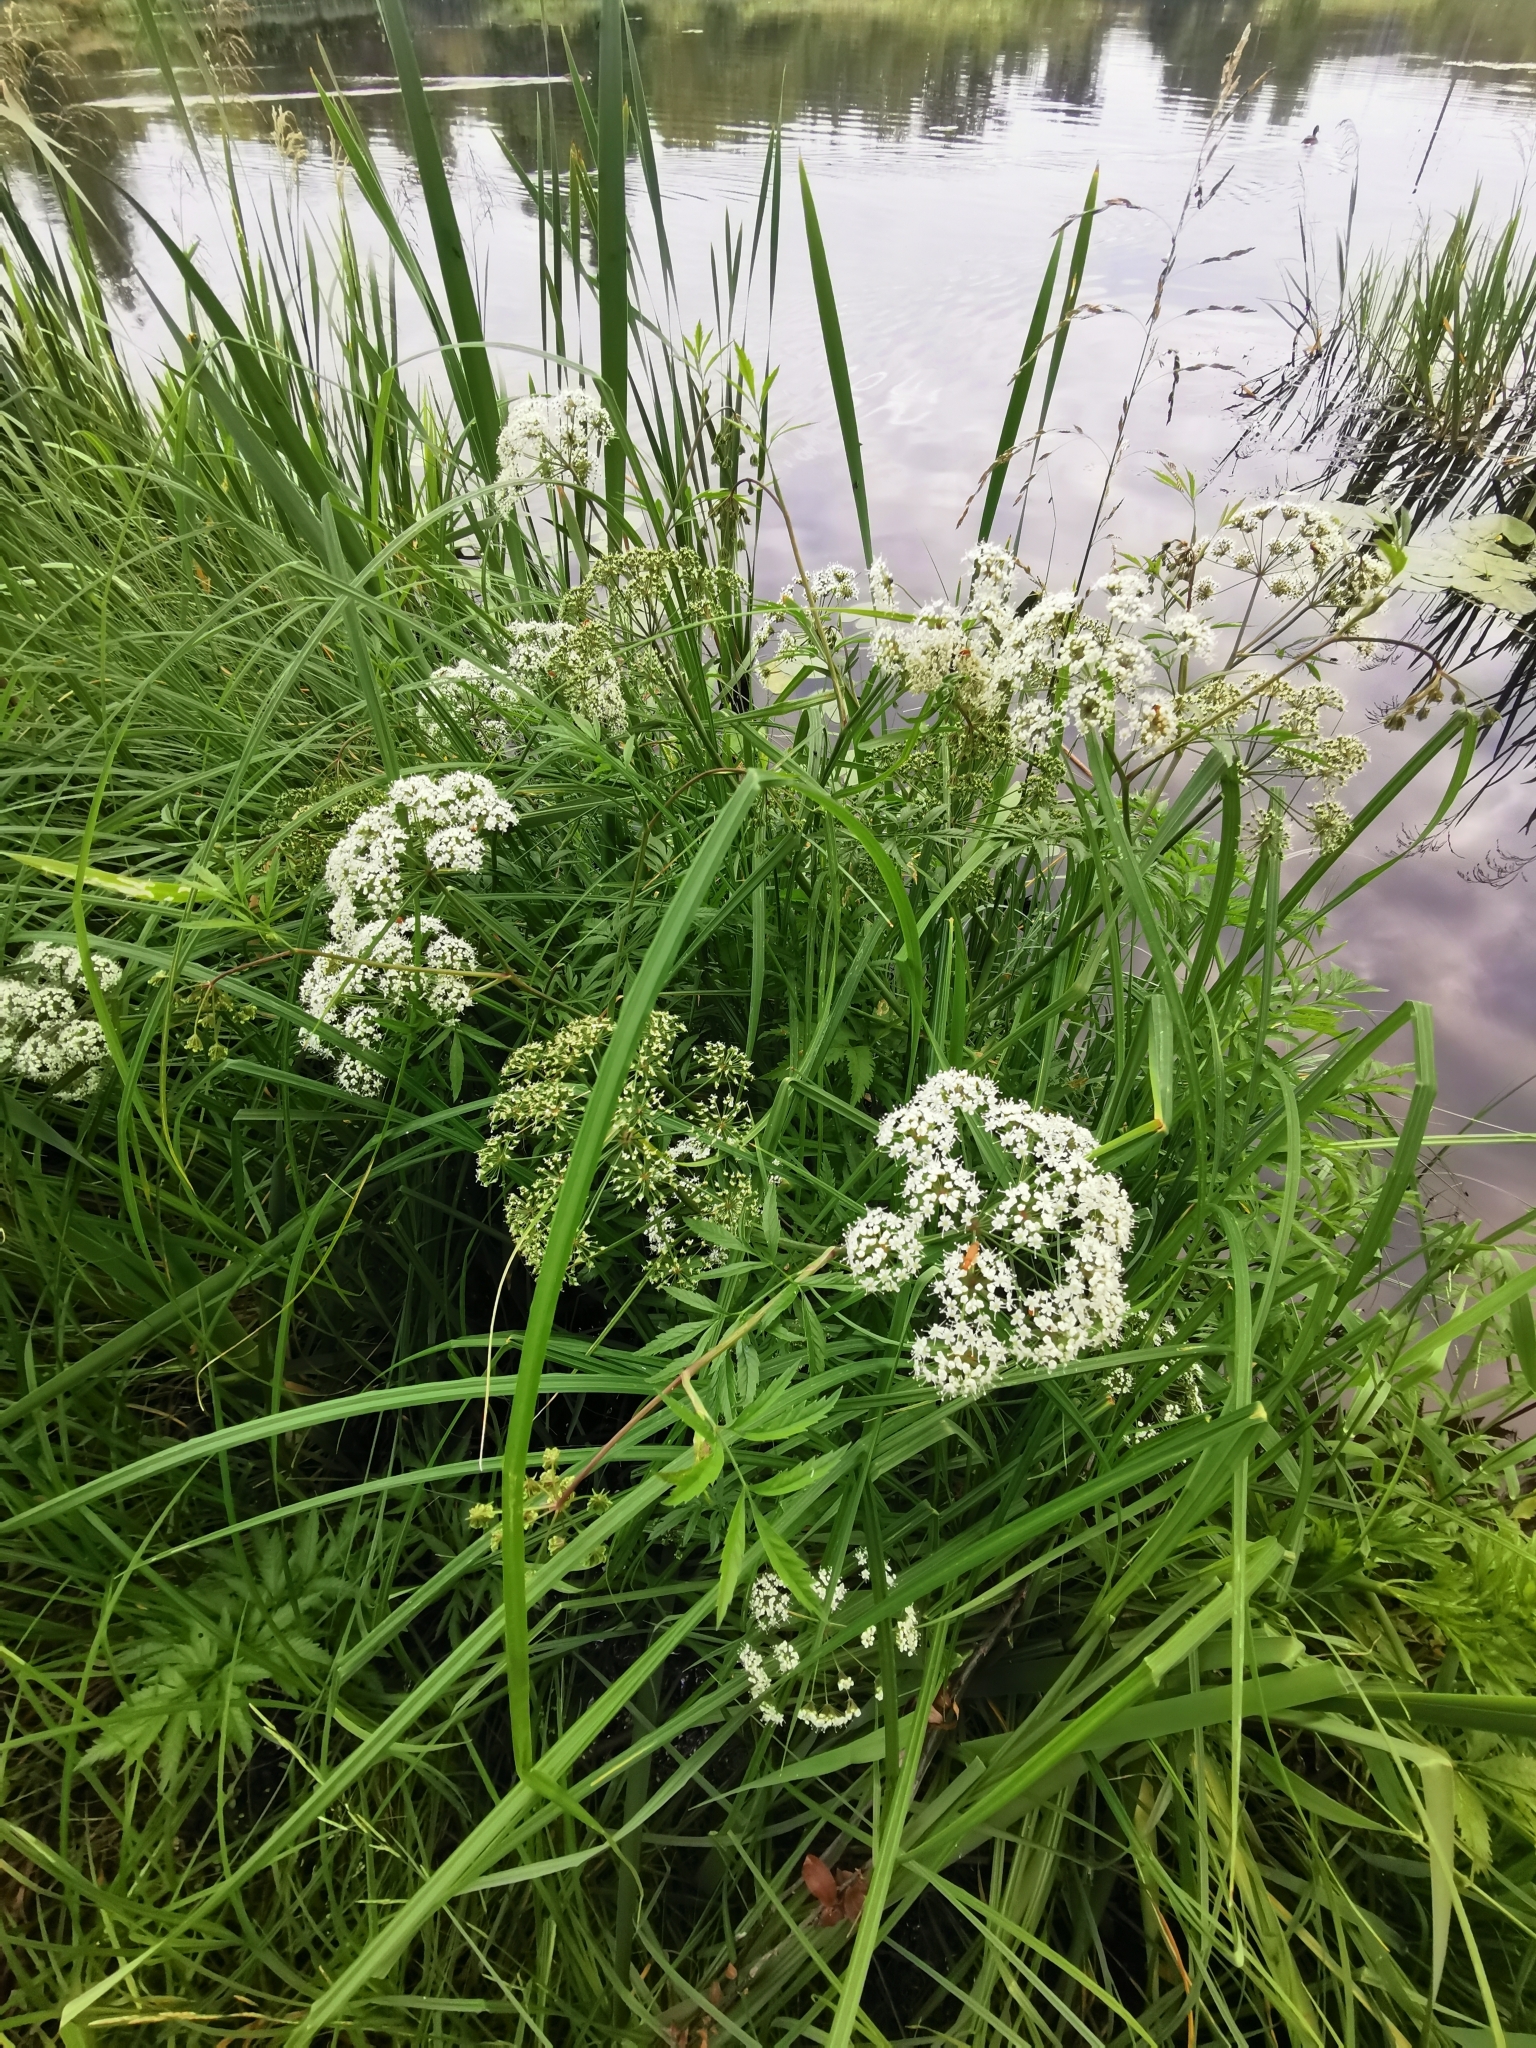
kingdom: Plantae
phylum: Tracheophyta
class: Magnoliopsida
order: Apiales
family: Apiaceae
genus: Cicuta
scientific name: Cicuta virosa
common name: Cowbane
